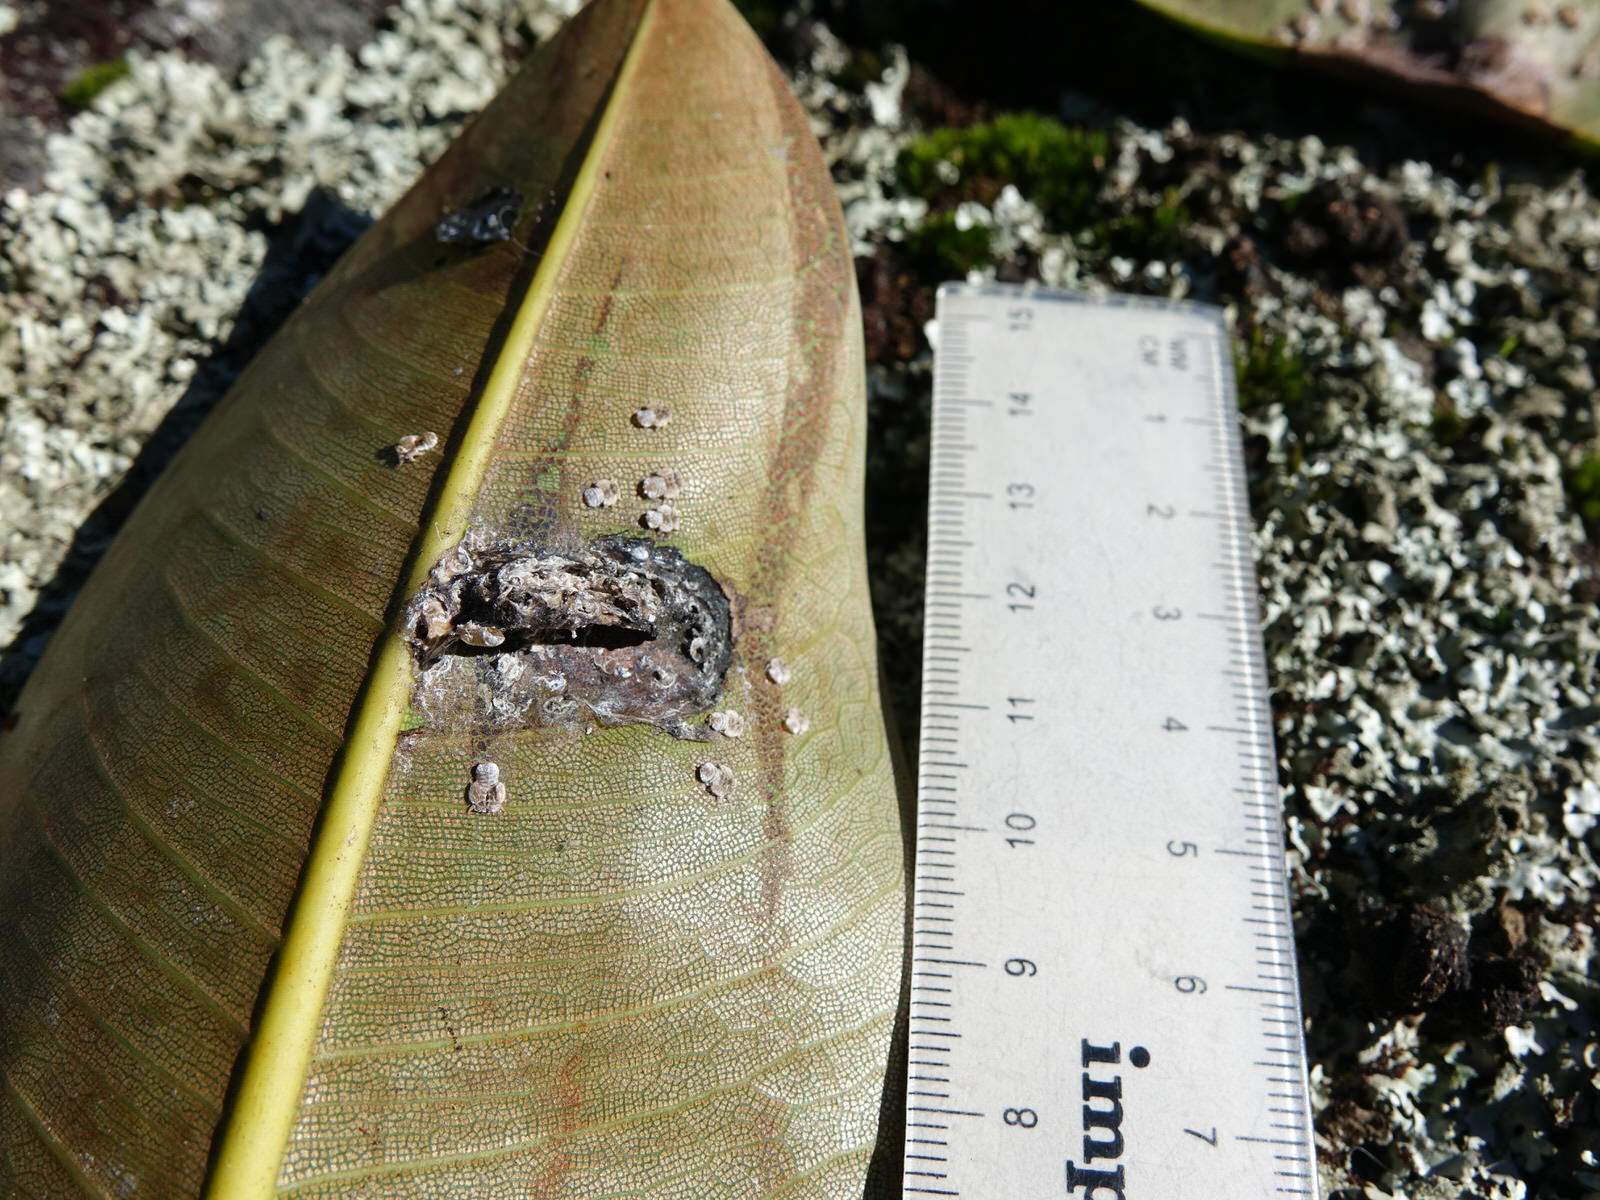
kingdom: Animalia
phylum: Arthropoda
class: Insecta
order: Hemiptera
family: Homotomidae
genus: Mycopsylla
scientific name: Mycopsylla fici
